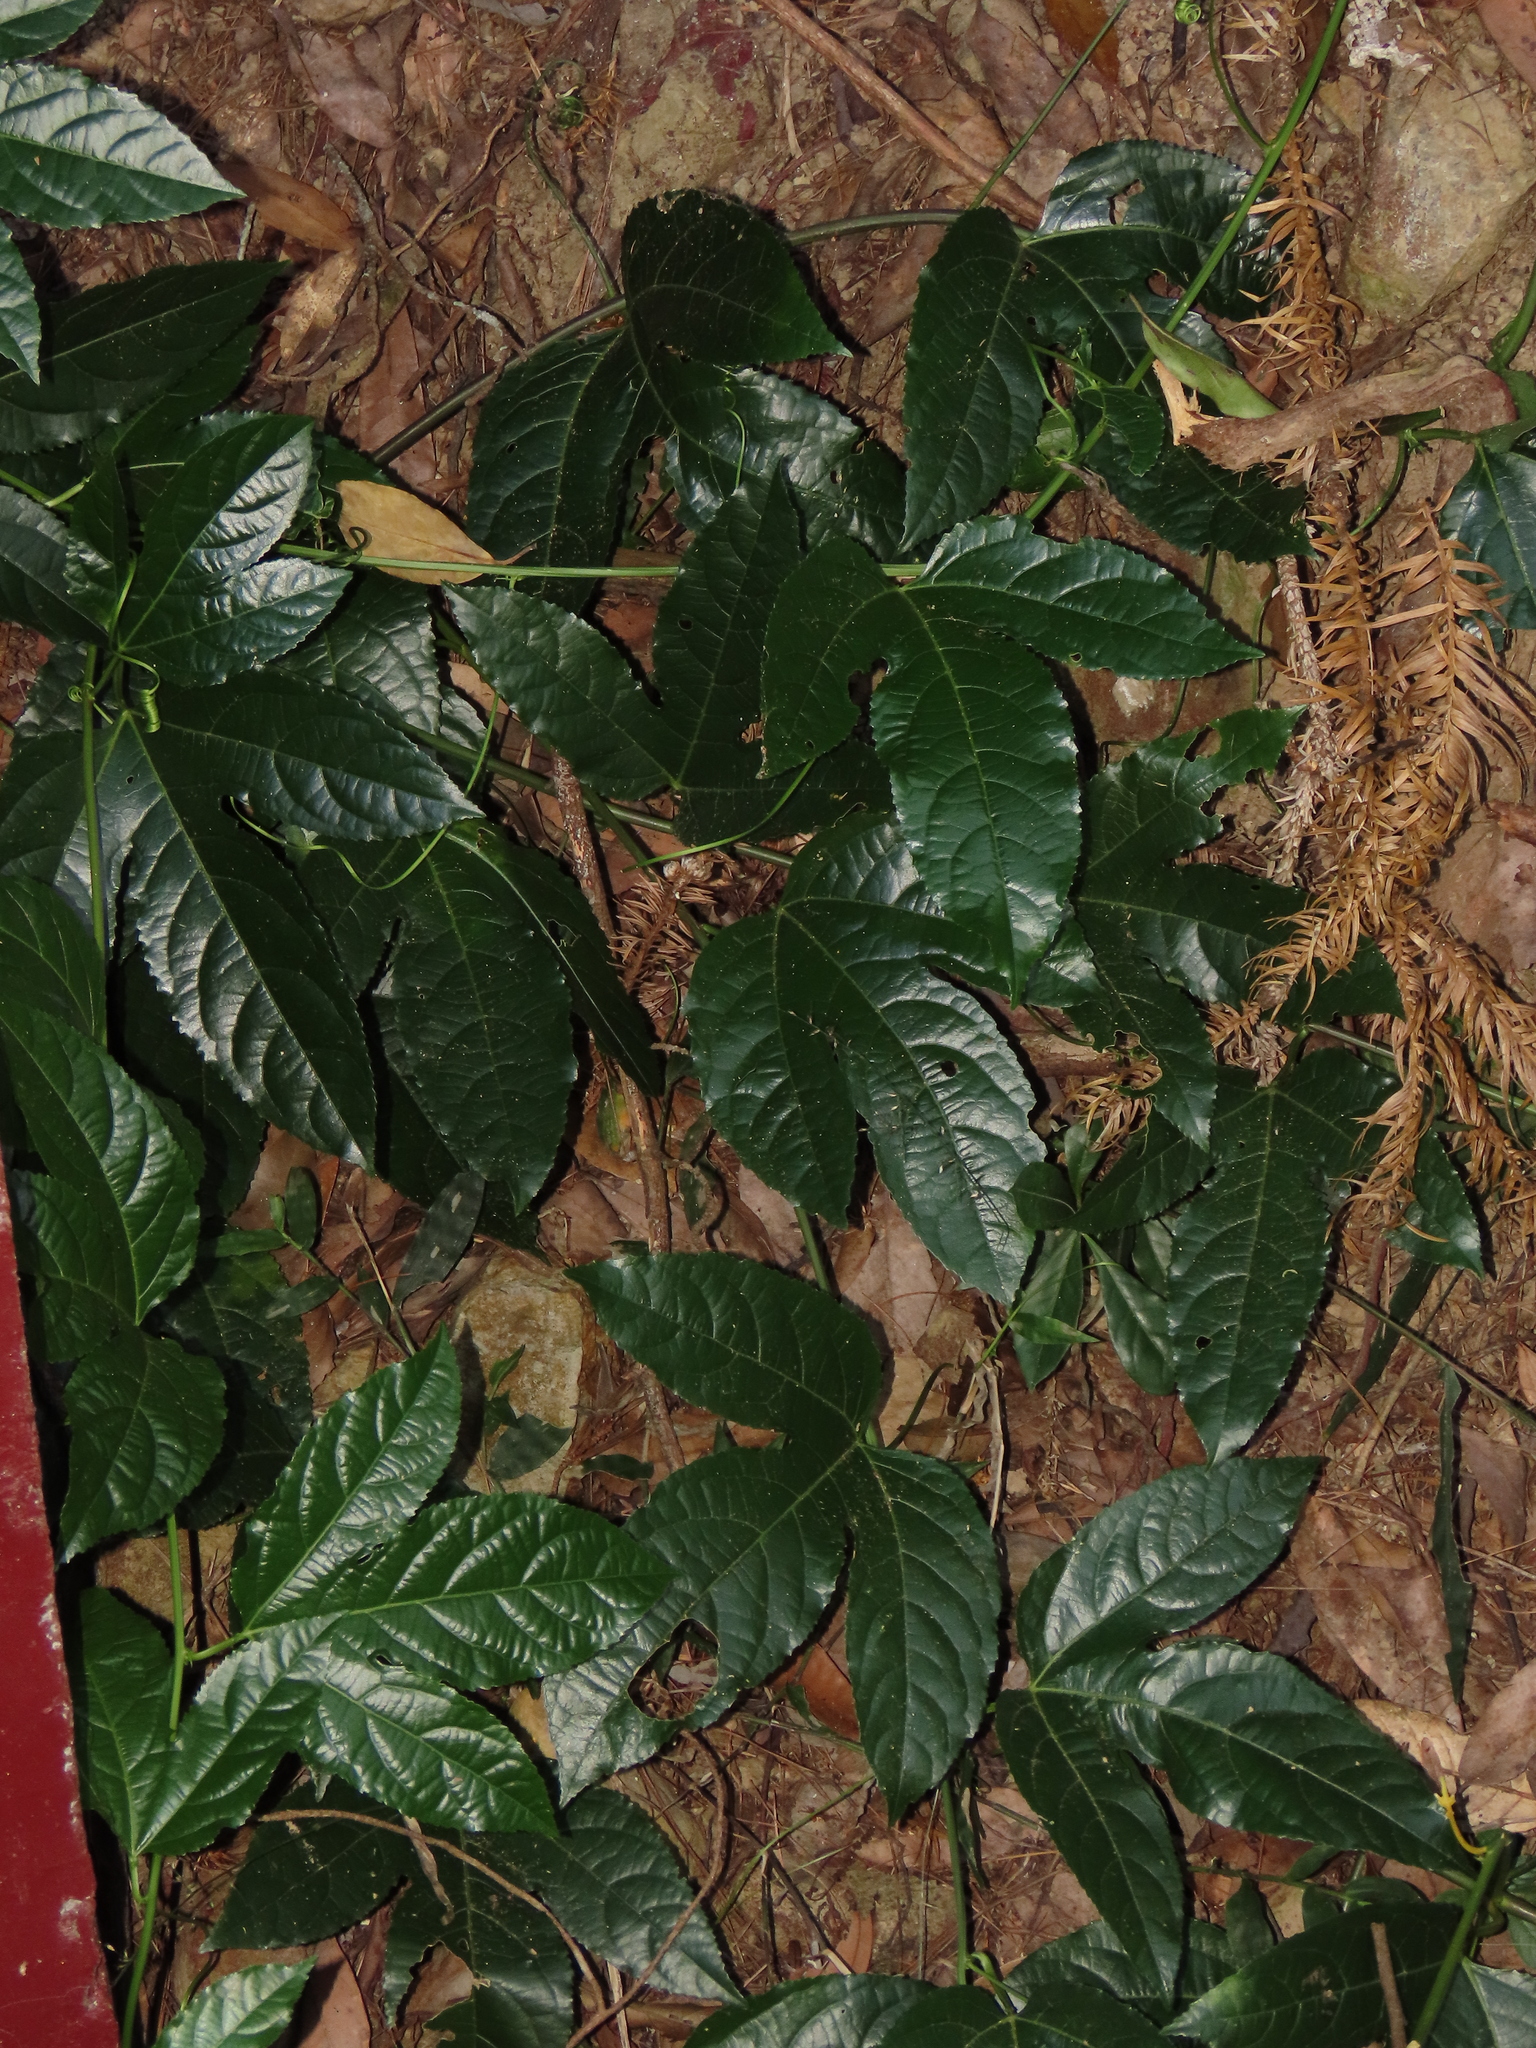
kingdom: Plantae
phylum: Tracheophyta
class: Magnoliopsida
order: Malpighiales
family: Passifloraceae
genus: Passiflora
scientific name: Passiflora edulis
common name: Purple granadilla
